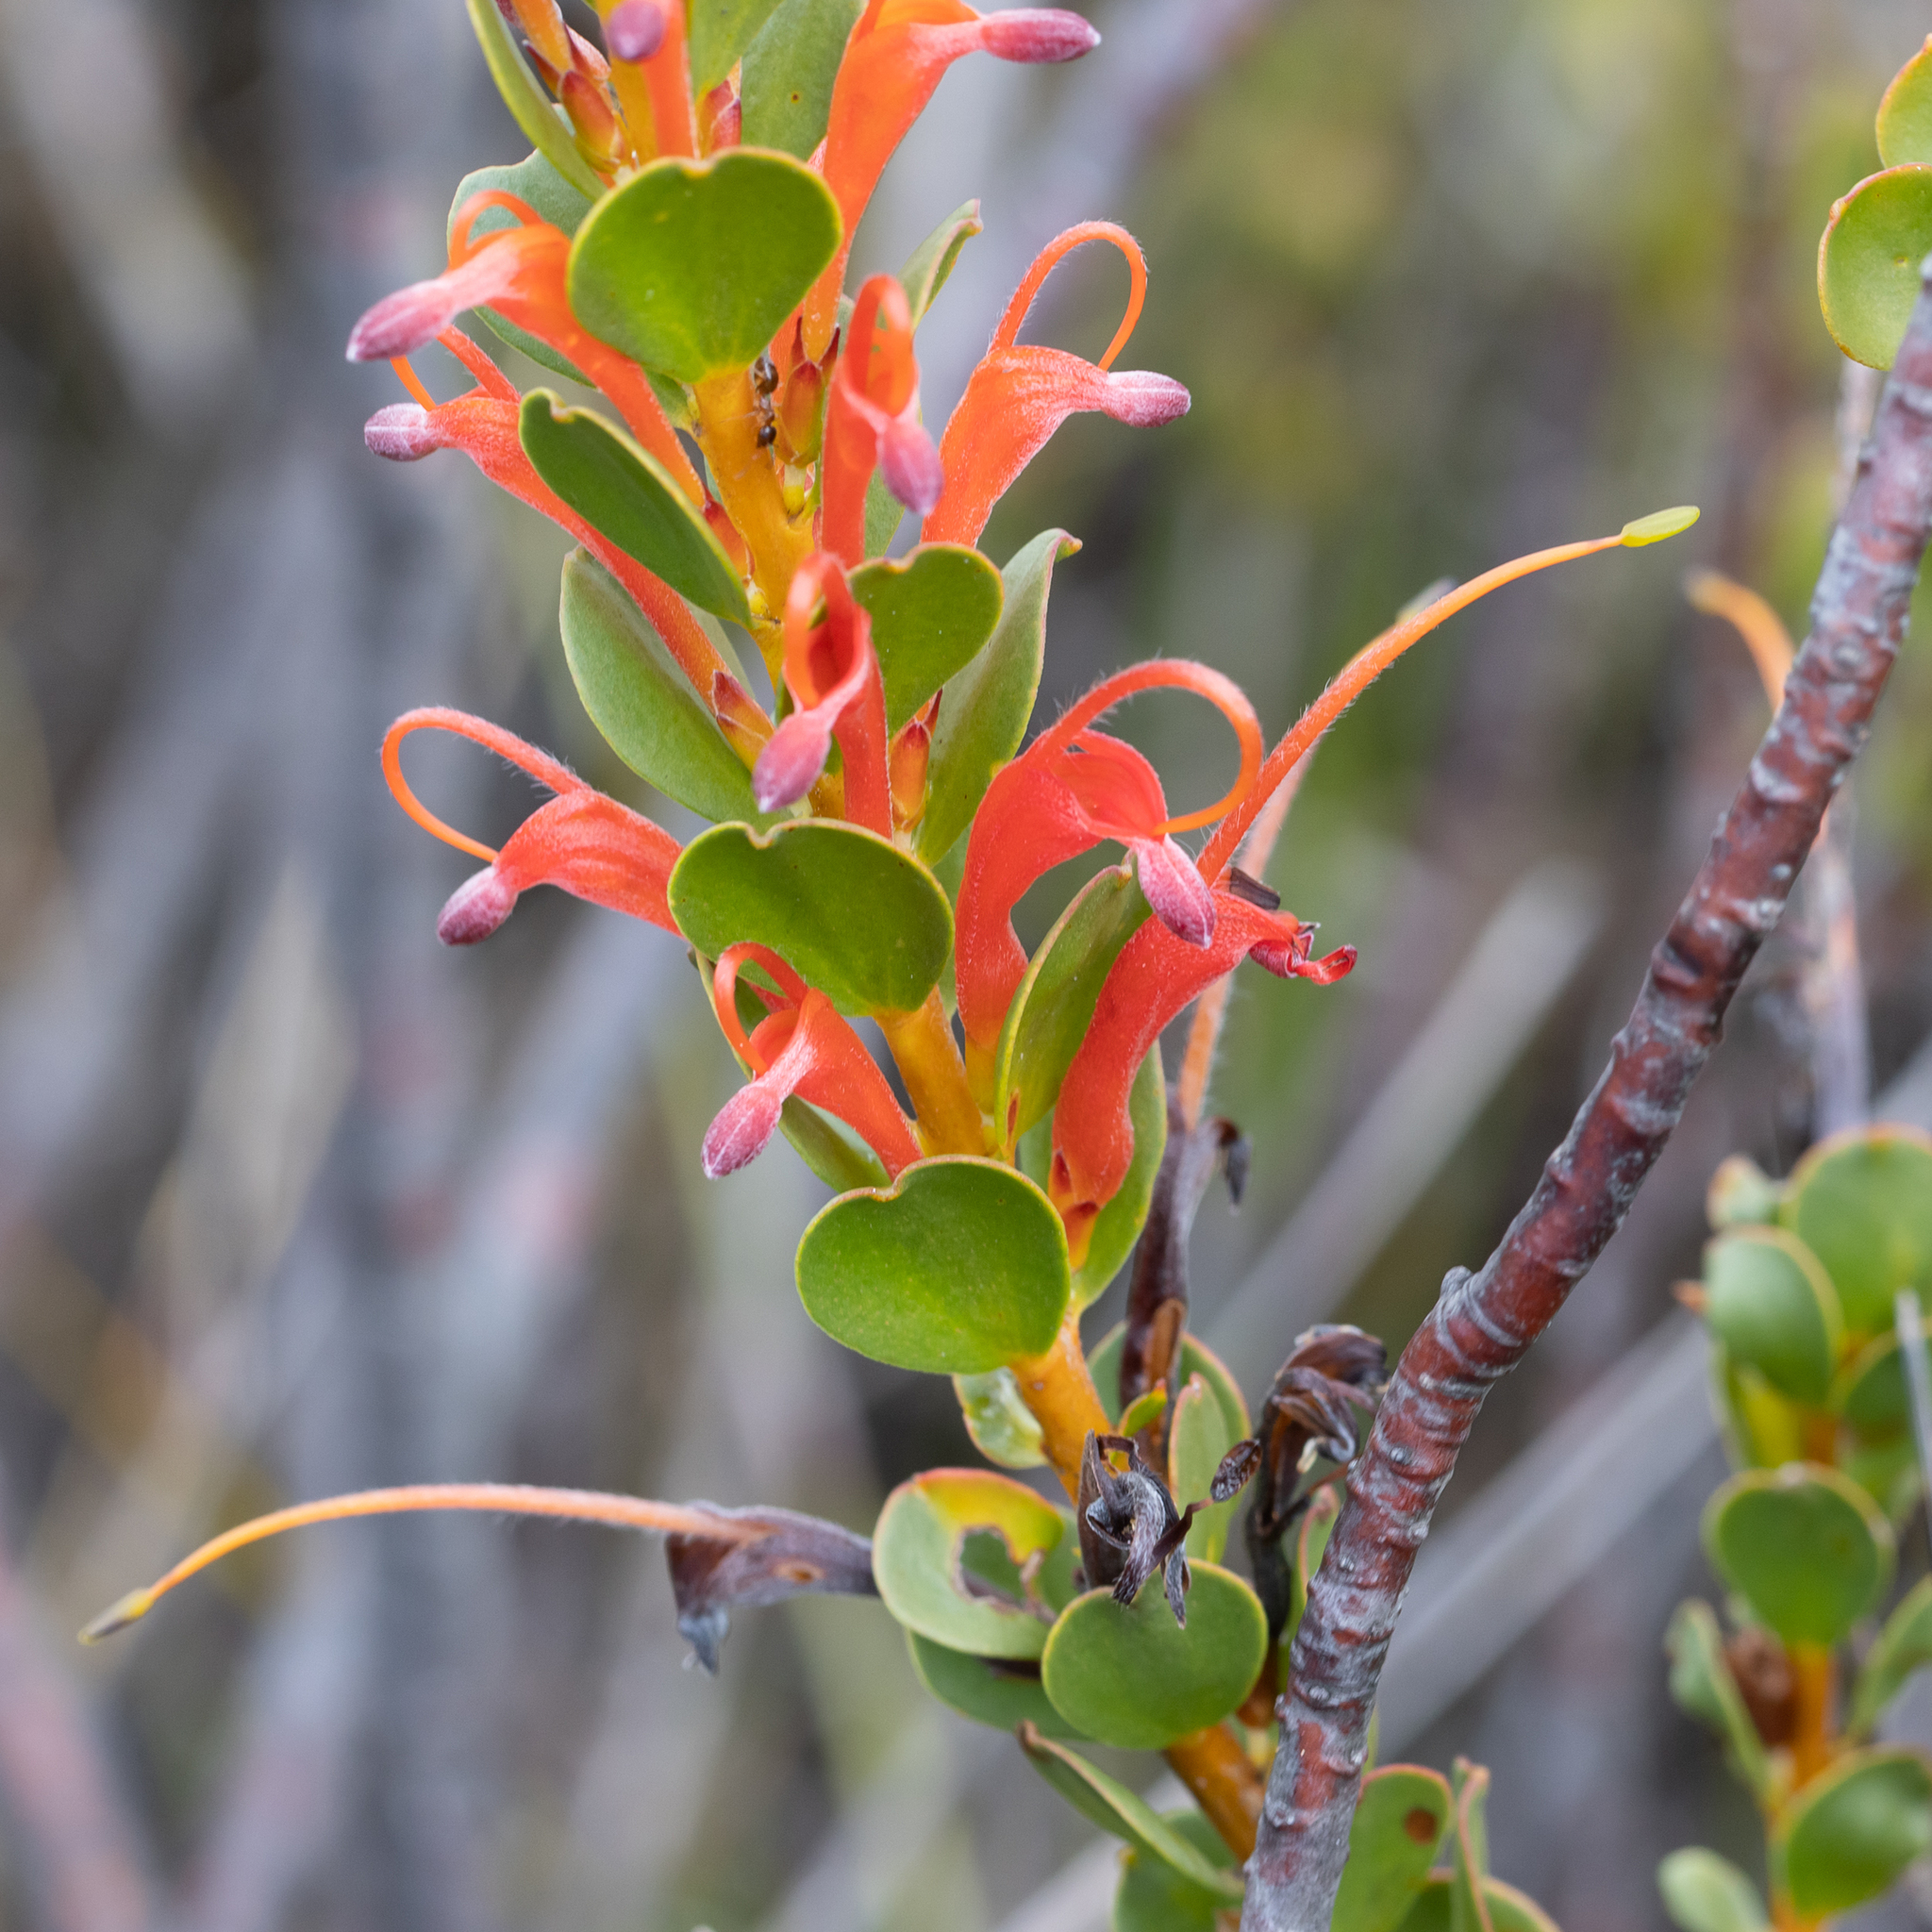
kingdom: Plantae
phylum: Tracheophyta
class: Magnoliopsida
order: Proteales
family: Proteaceae
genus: Adenanthos
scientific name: Adenanthos obovatus
